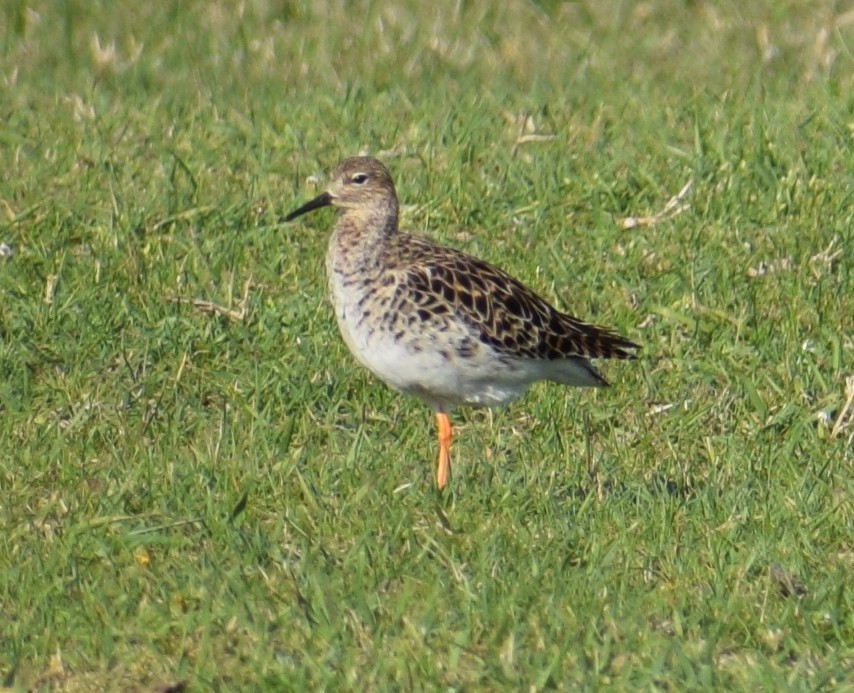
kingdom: Animalia
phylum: Chordata
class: Aves
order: Charadriiformes
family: Scolopacidae
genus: Calidris
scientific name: Calidris pugnax
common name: Ruff
